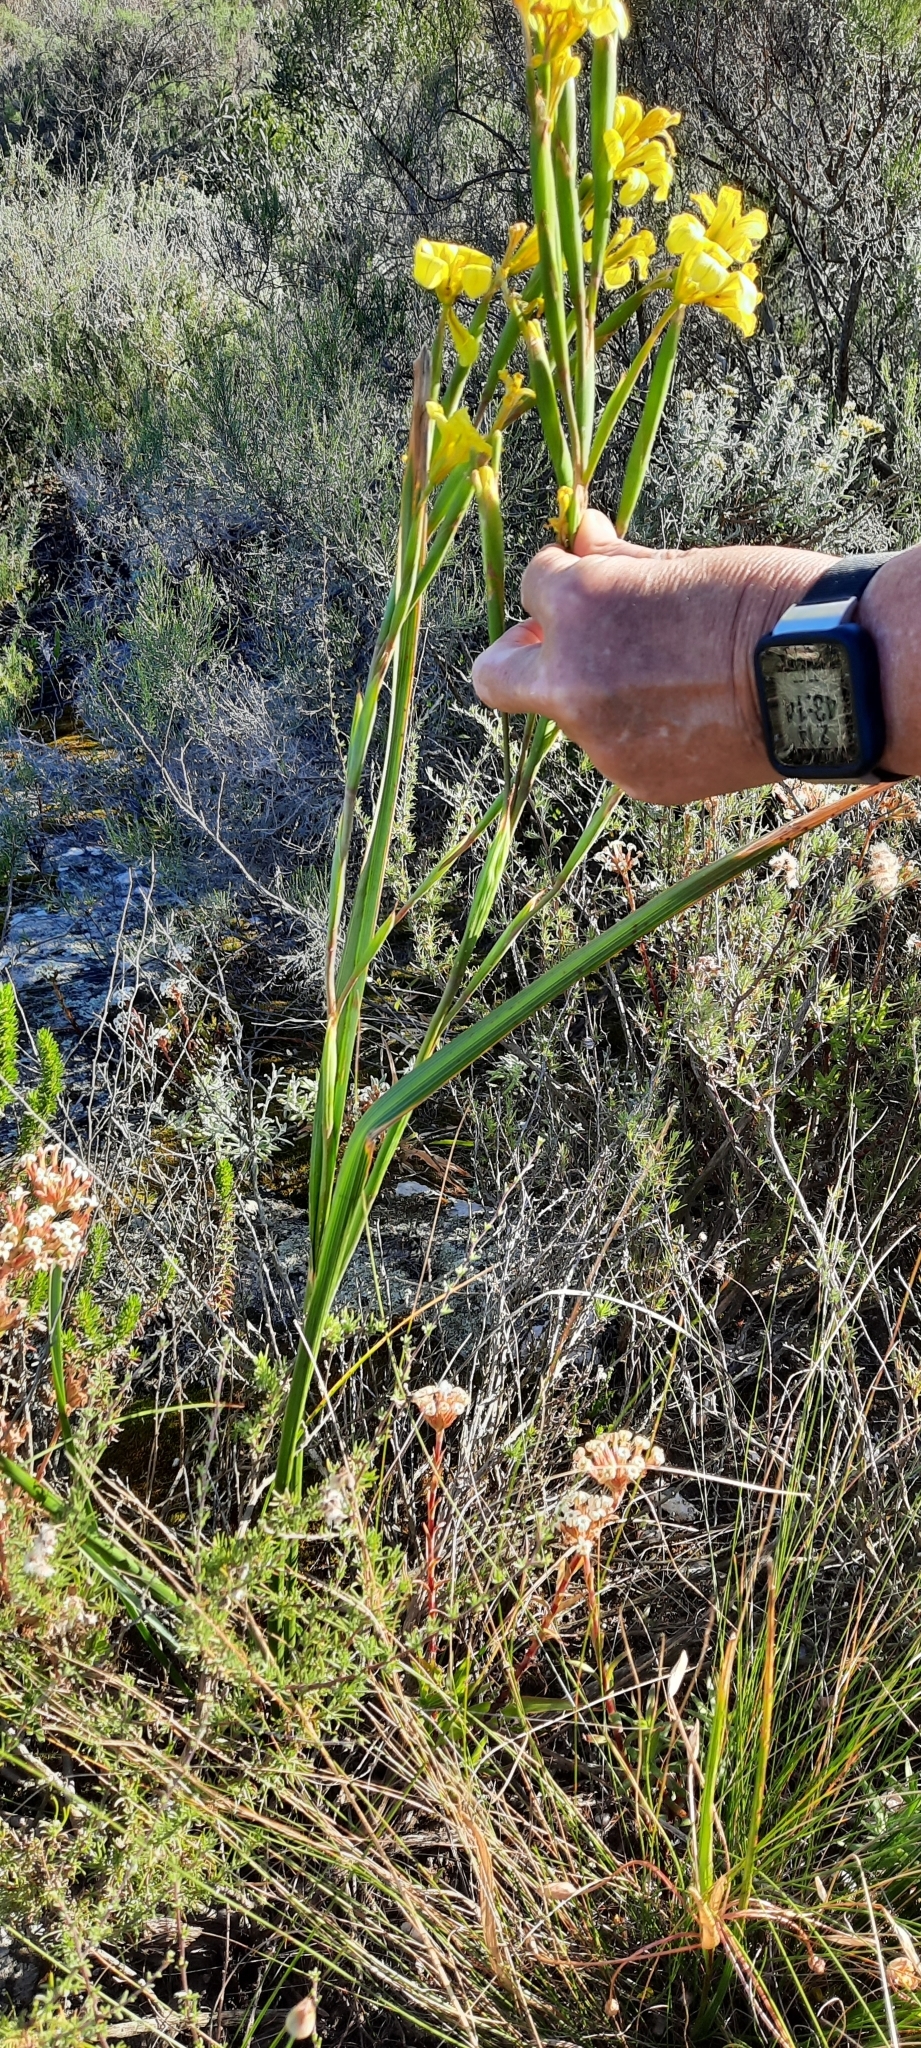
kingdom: Plantae
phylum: Tracheophyta
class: Liliopsida
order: Asparagales
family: Iridaceae
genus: Moraea
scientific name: Moraea ochroleuca
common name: Red tulp
